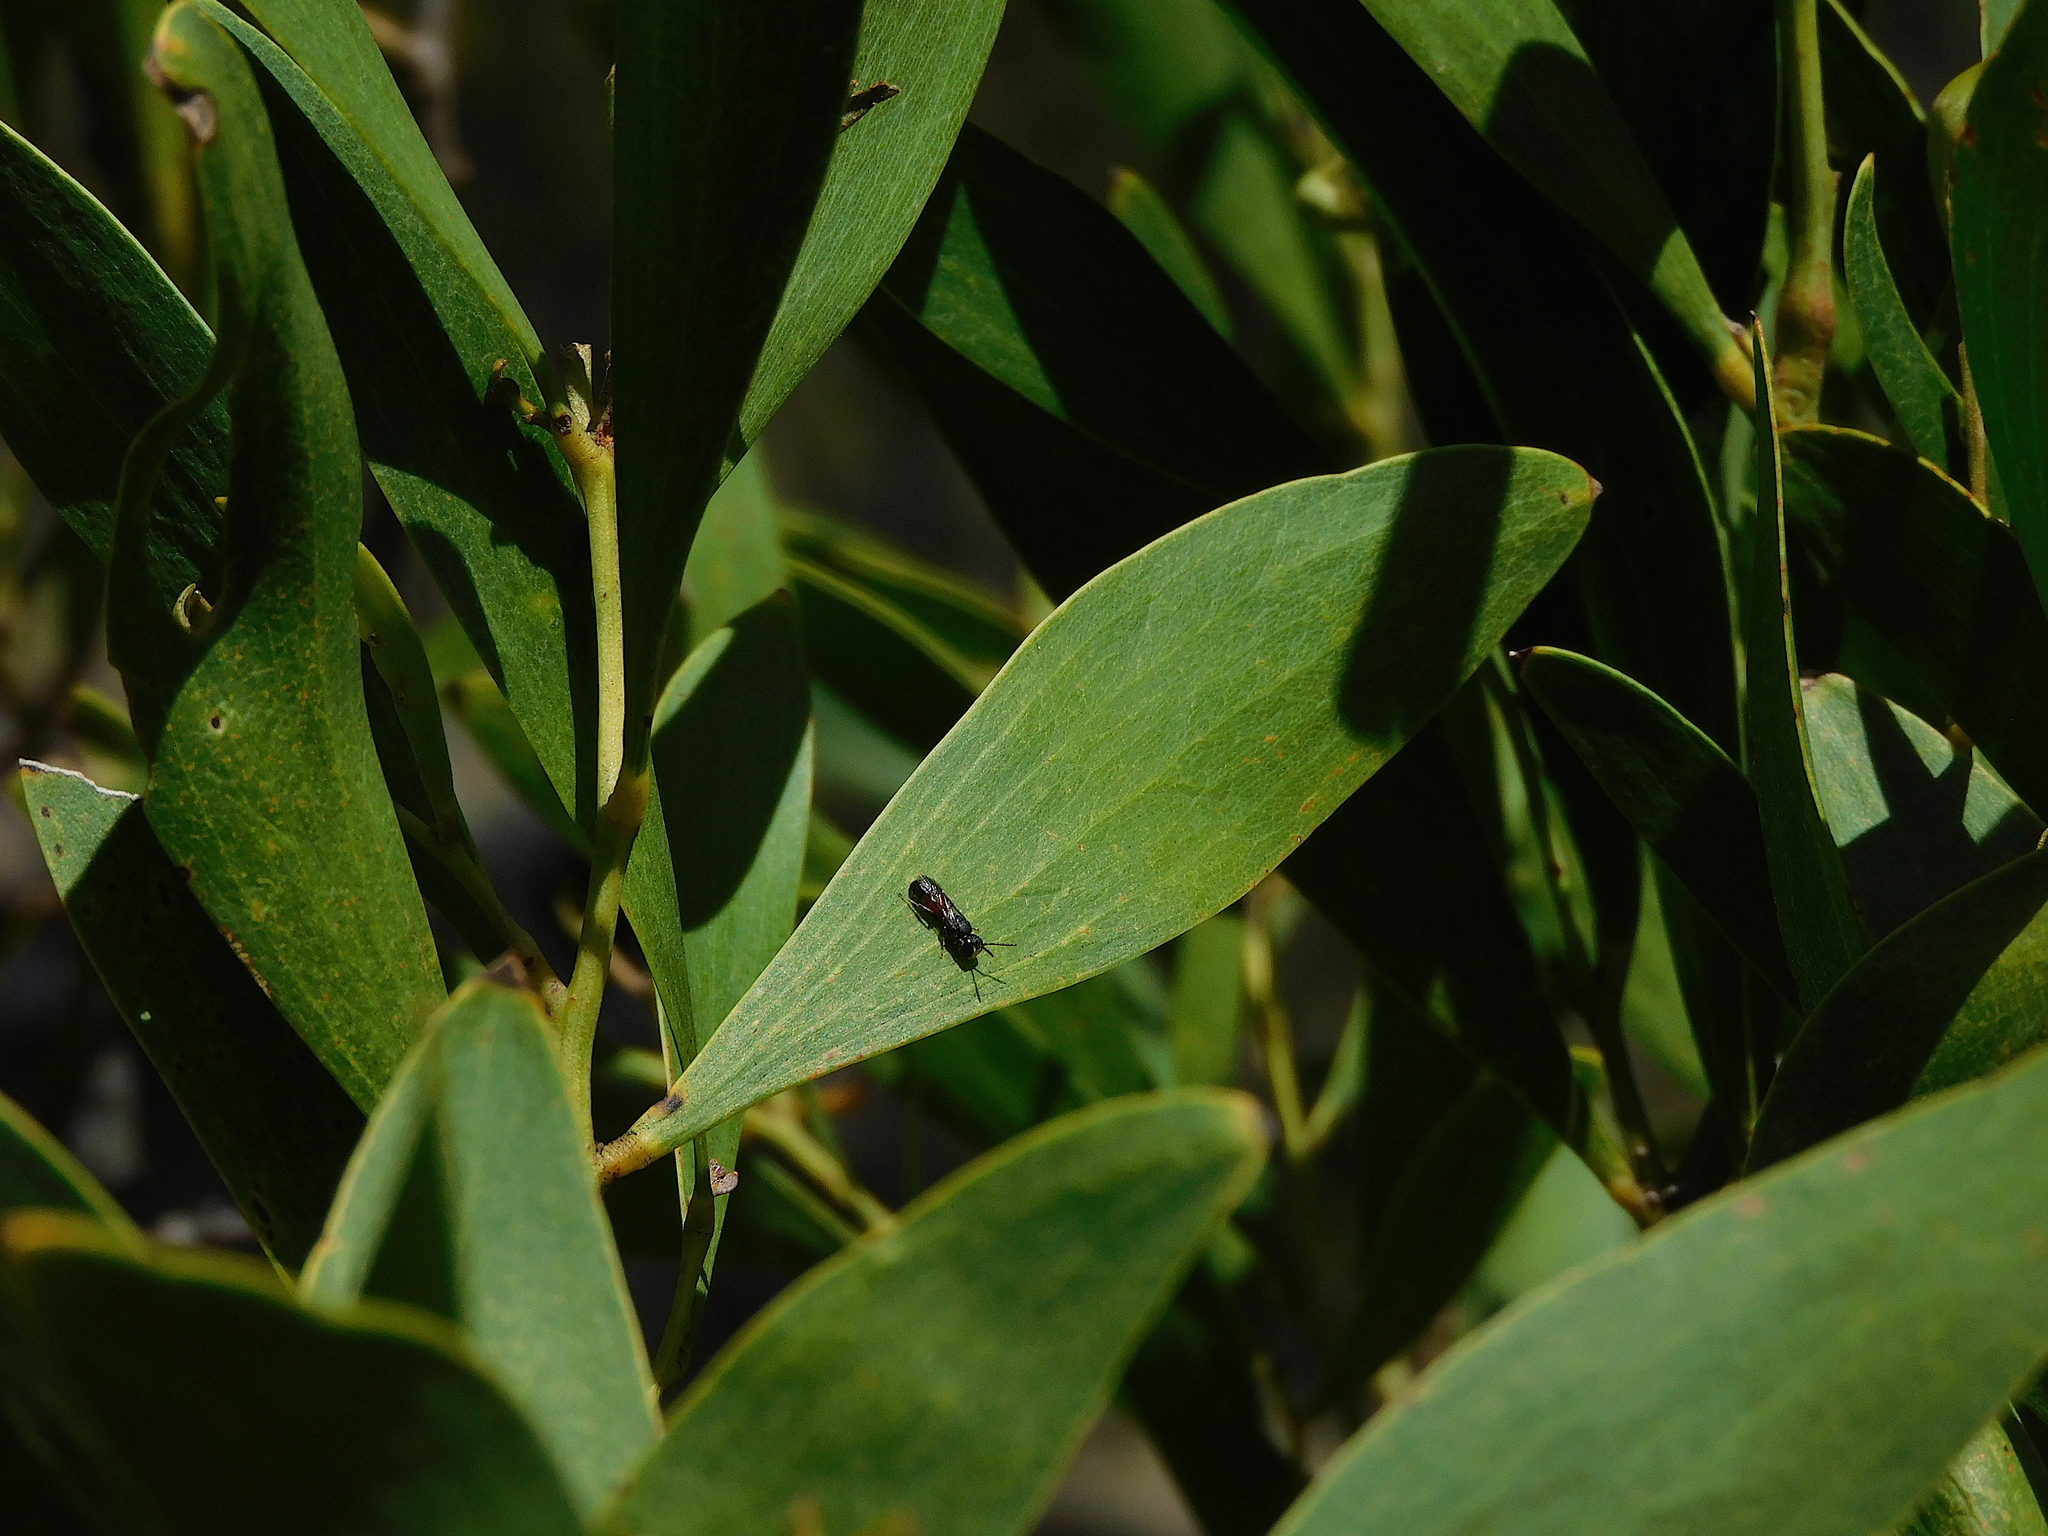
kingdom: Animalia
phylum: Arthropoda
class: Insecta
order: Hymenoptera
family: Colletidae
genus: Hylaeus
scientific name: Hylaeus littleri
